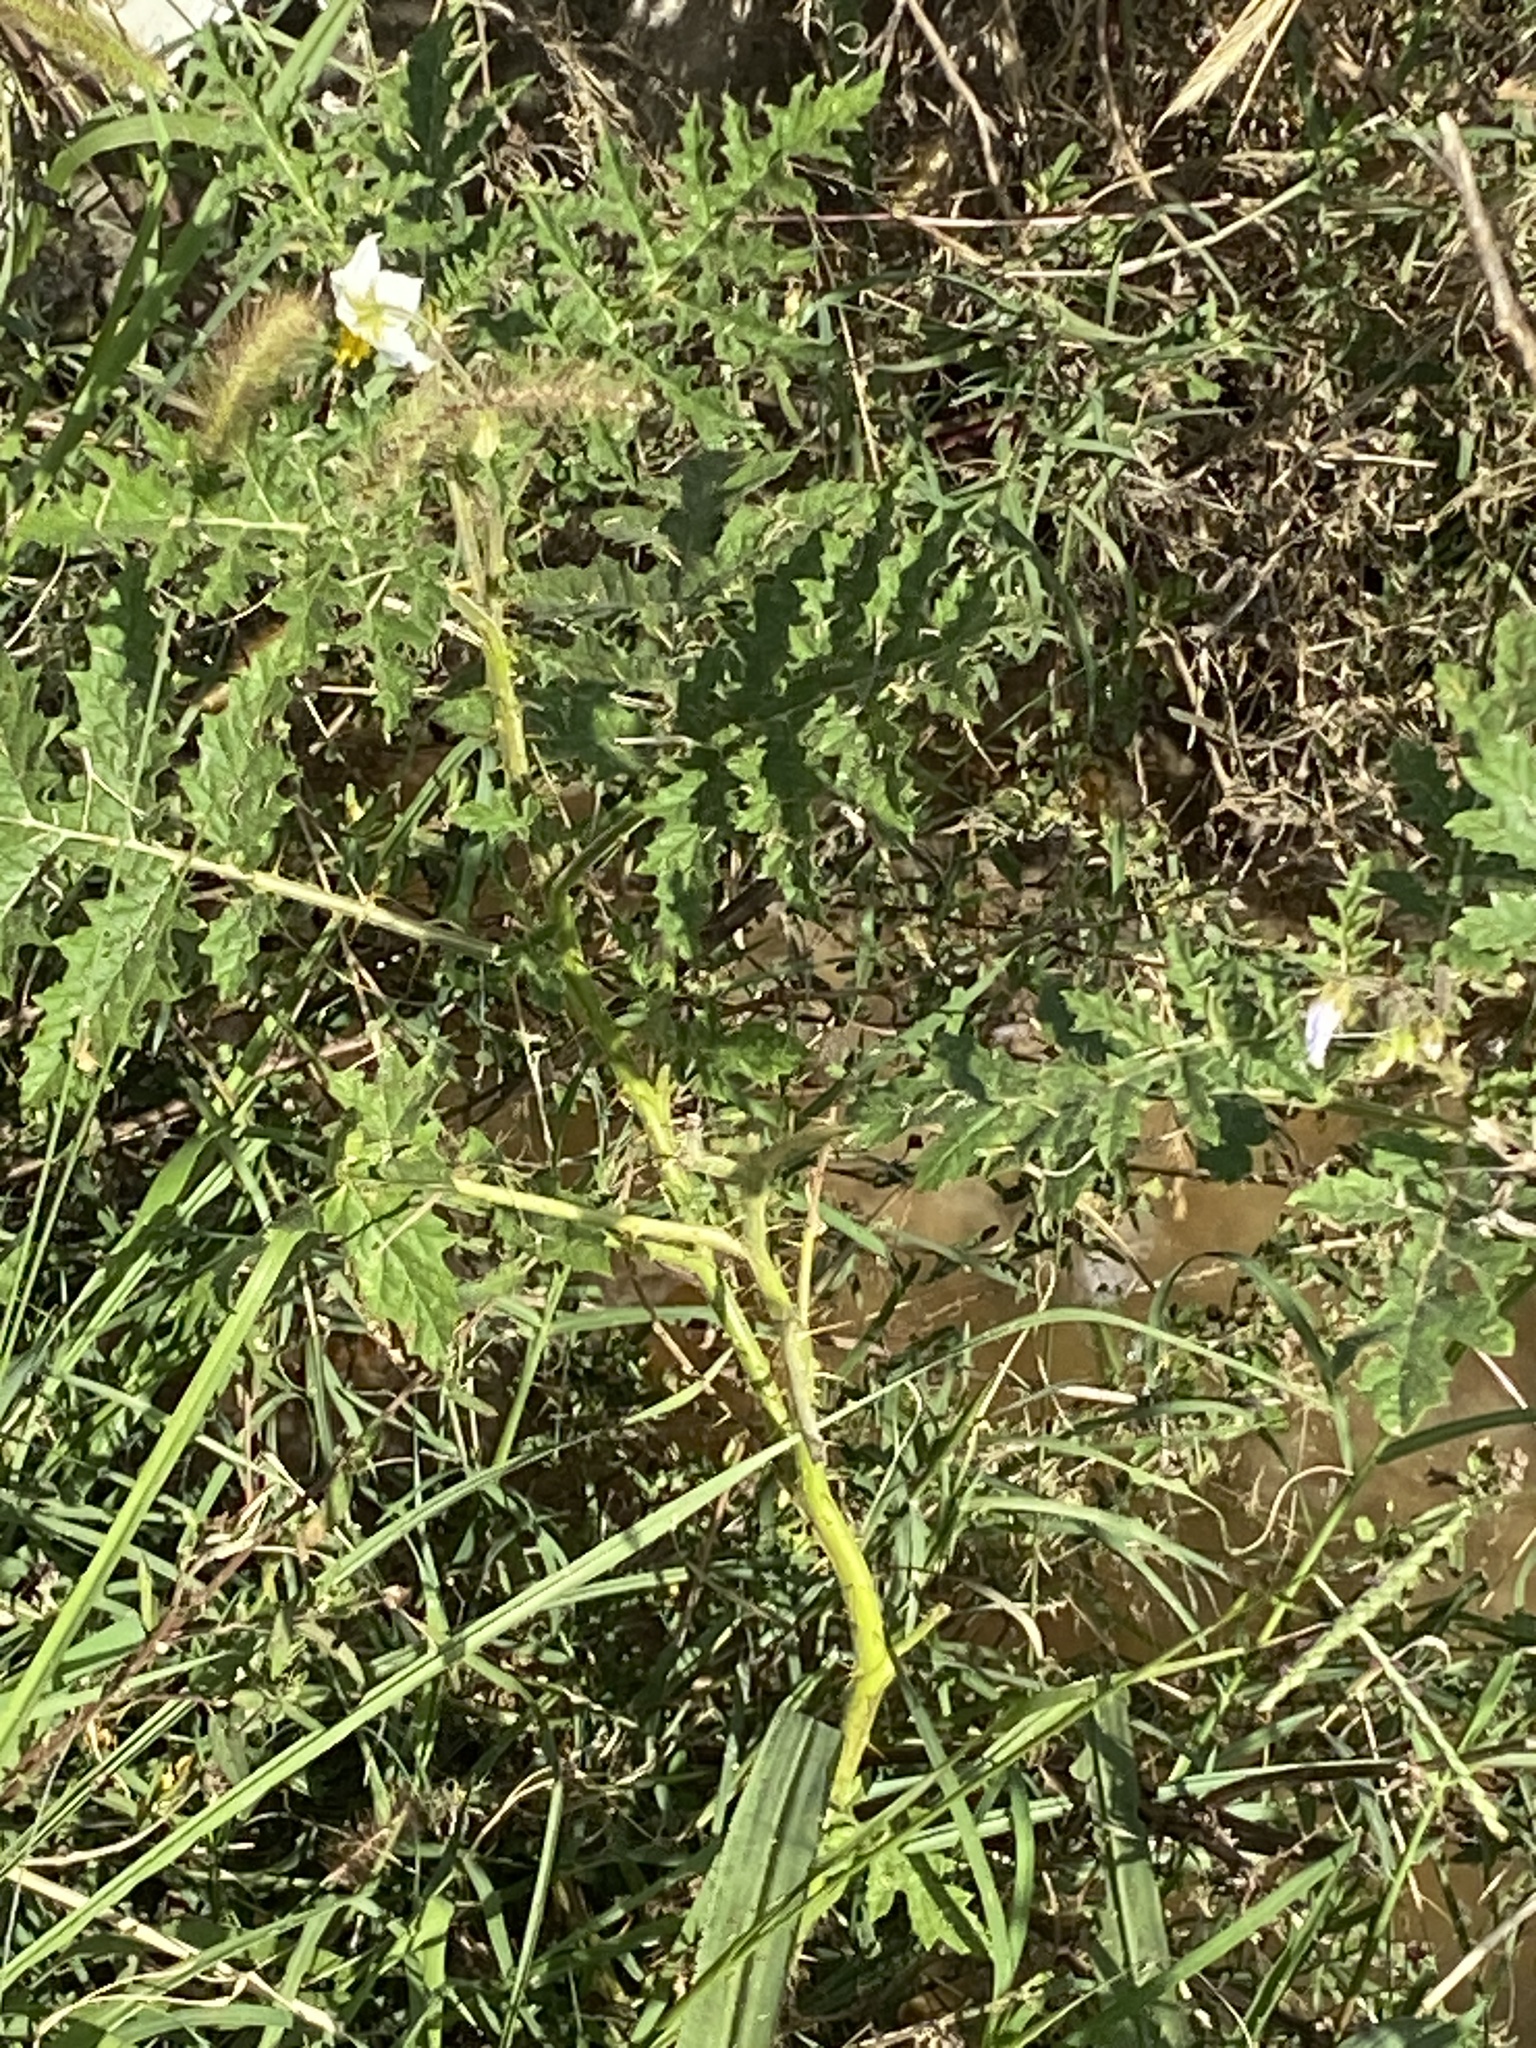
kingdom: Plantae
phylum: Tracheophyta
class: Magnoliopsida
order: Solanales
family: Solanaceae
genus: Solanum
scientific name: Solanum sisymbriifolium
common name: Red buffalo-bur
